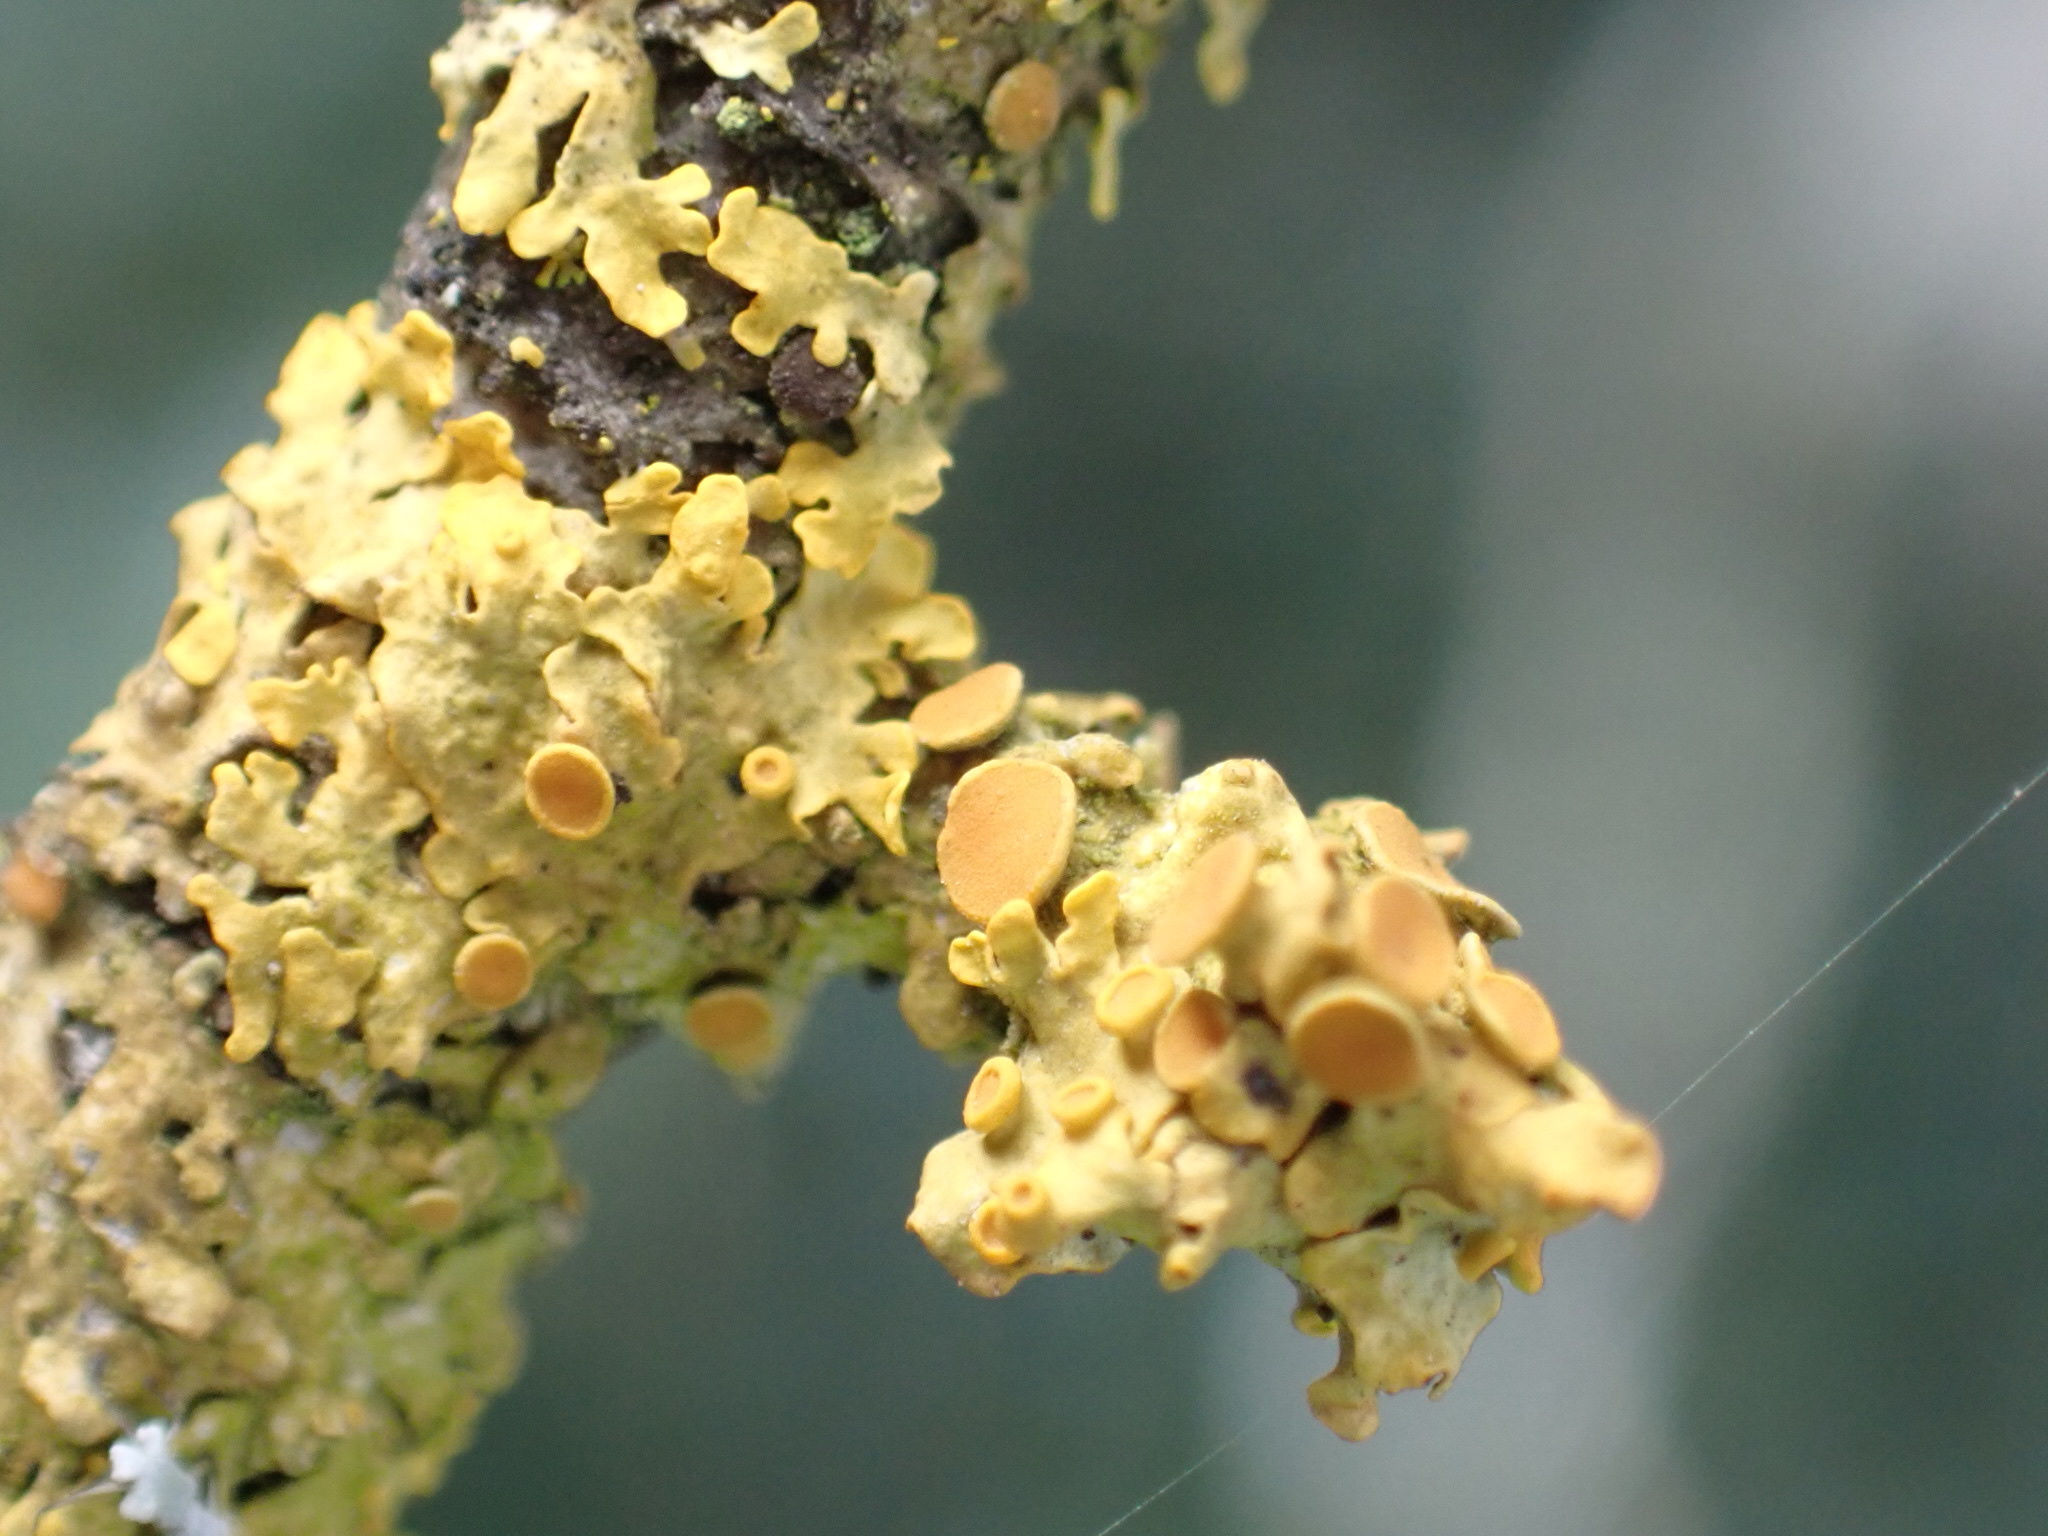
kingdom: Fungi
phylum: Ascomycota
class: Lecanoromycetes
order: Teloschistales
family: Teloschistaceae
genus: Xanthoria
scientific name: Xanthoria parietina
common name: Common orange lichen
